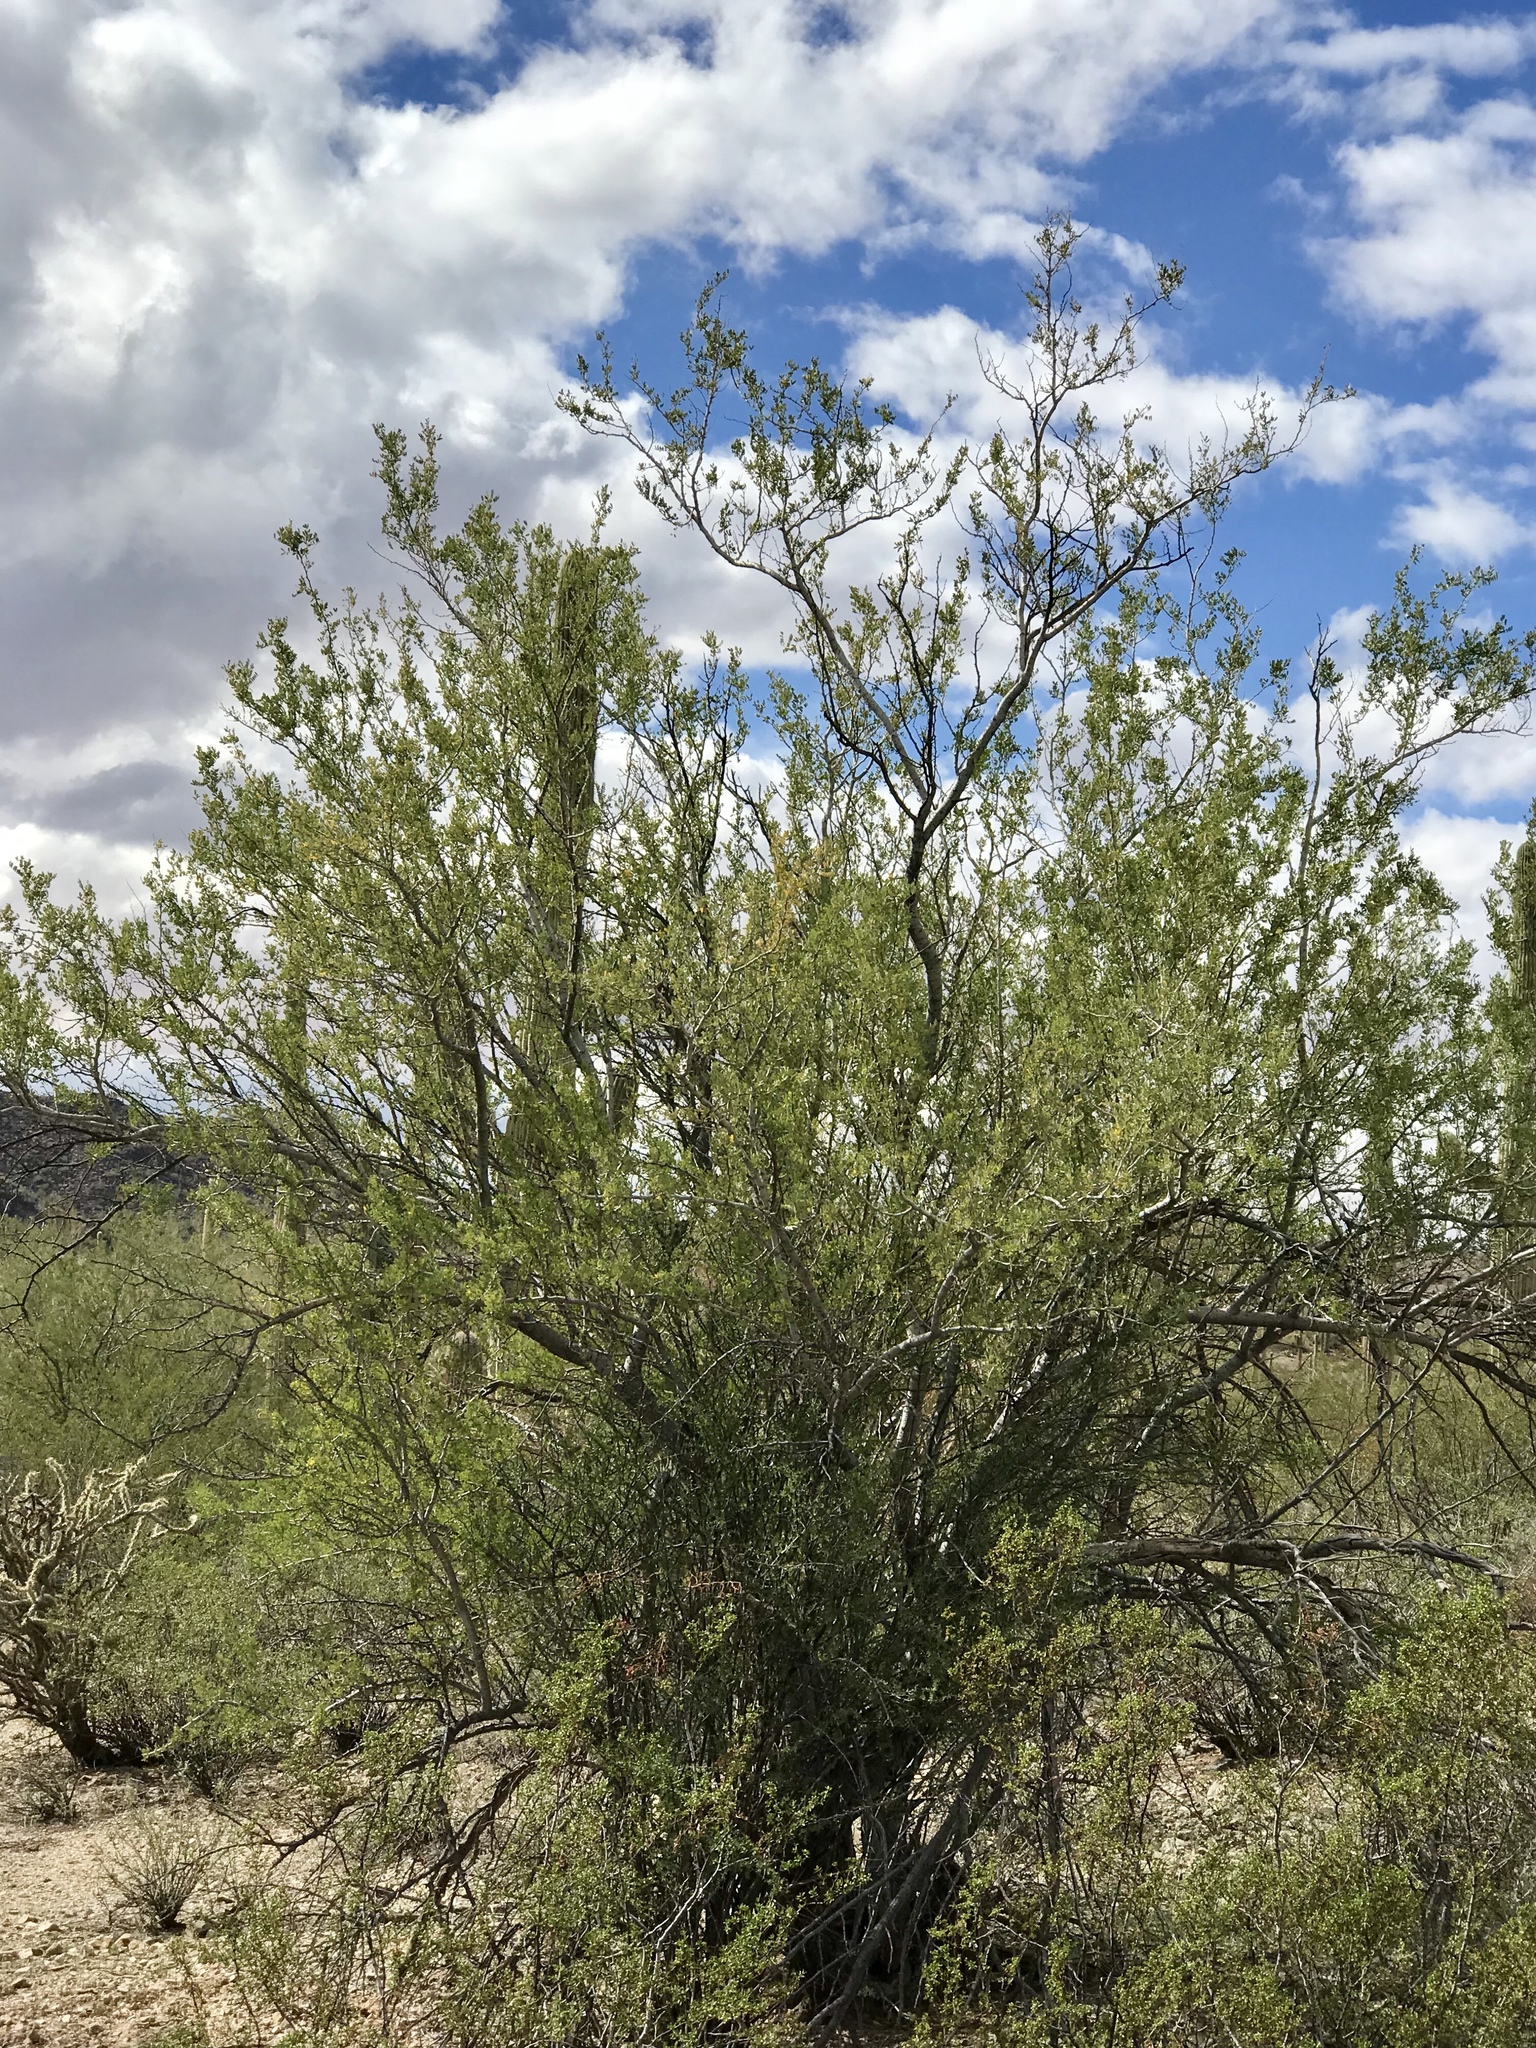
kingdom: Plantae
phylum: Tracheophyta
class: Magnoliopsida
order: Fabales
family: Fabaceae
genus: Olneya
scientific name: Olneya tesota
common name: Desert ironwood
